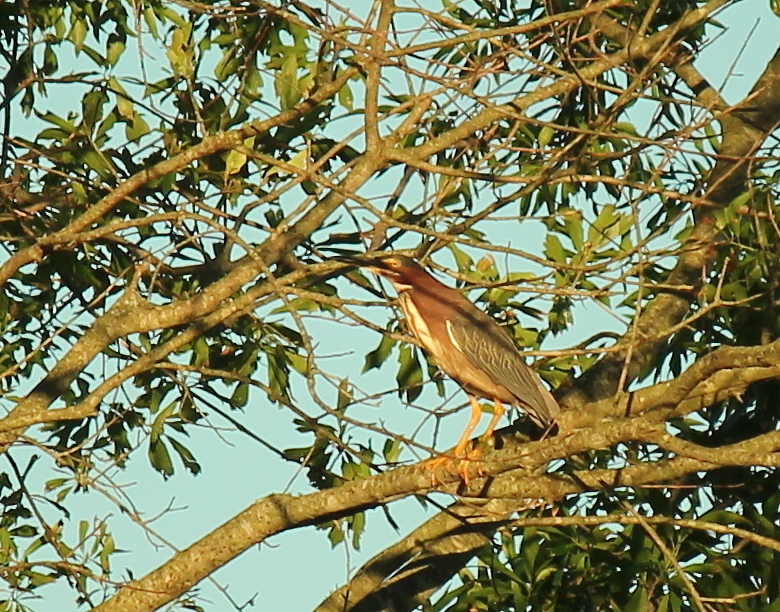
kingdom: Animalia
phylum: Chordata
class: Aves
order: Pelecaniformes
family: Ardeidae
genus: Butorides
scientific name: Butorides virescens
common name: Green heron
